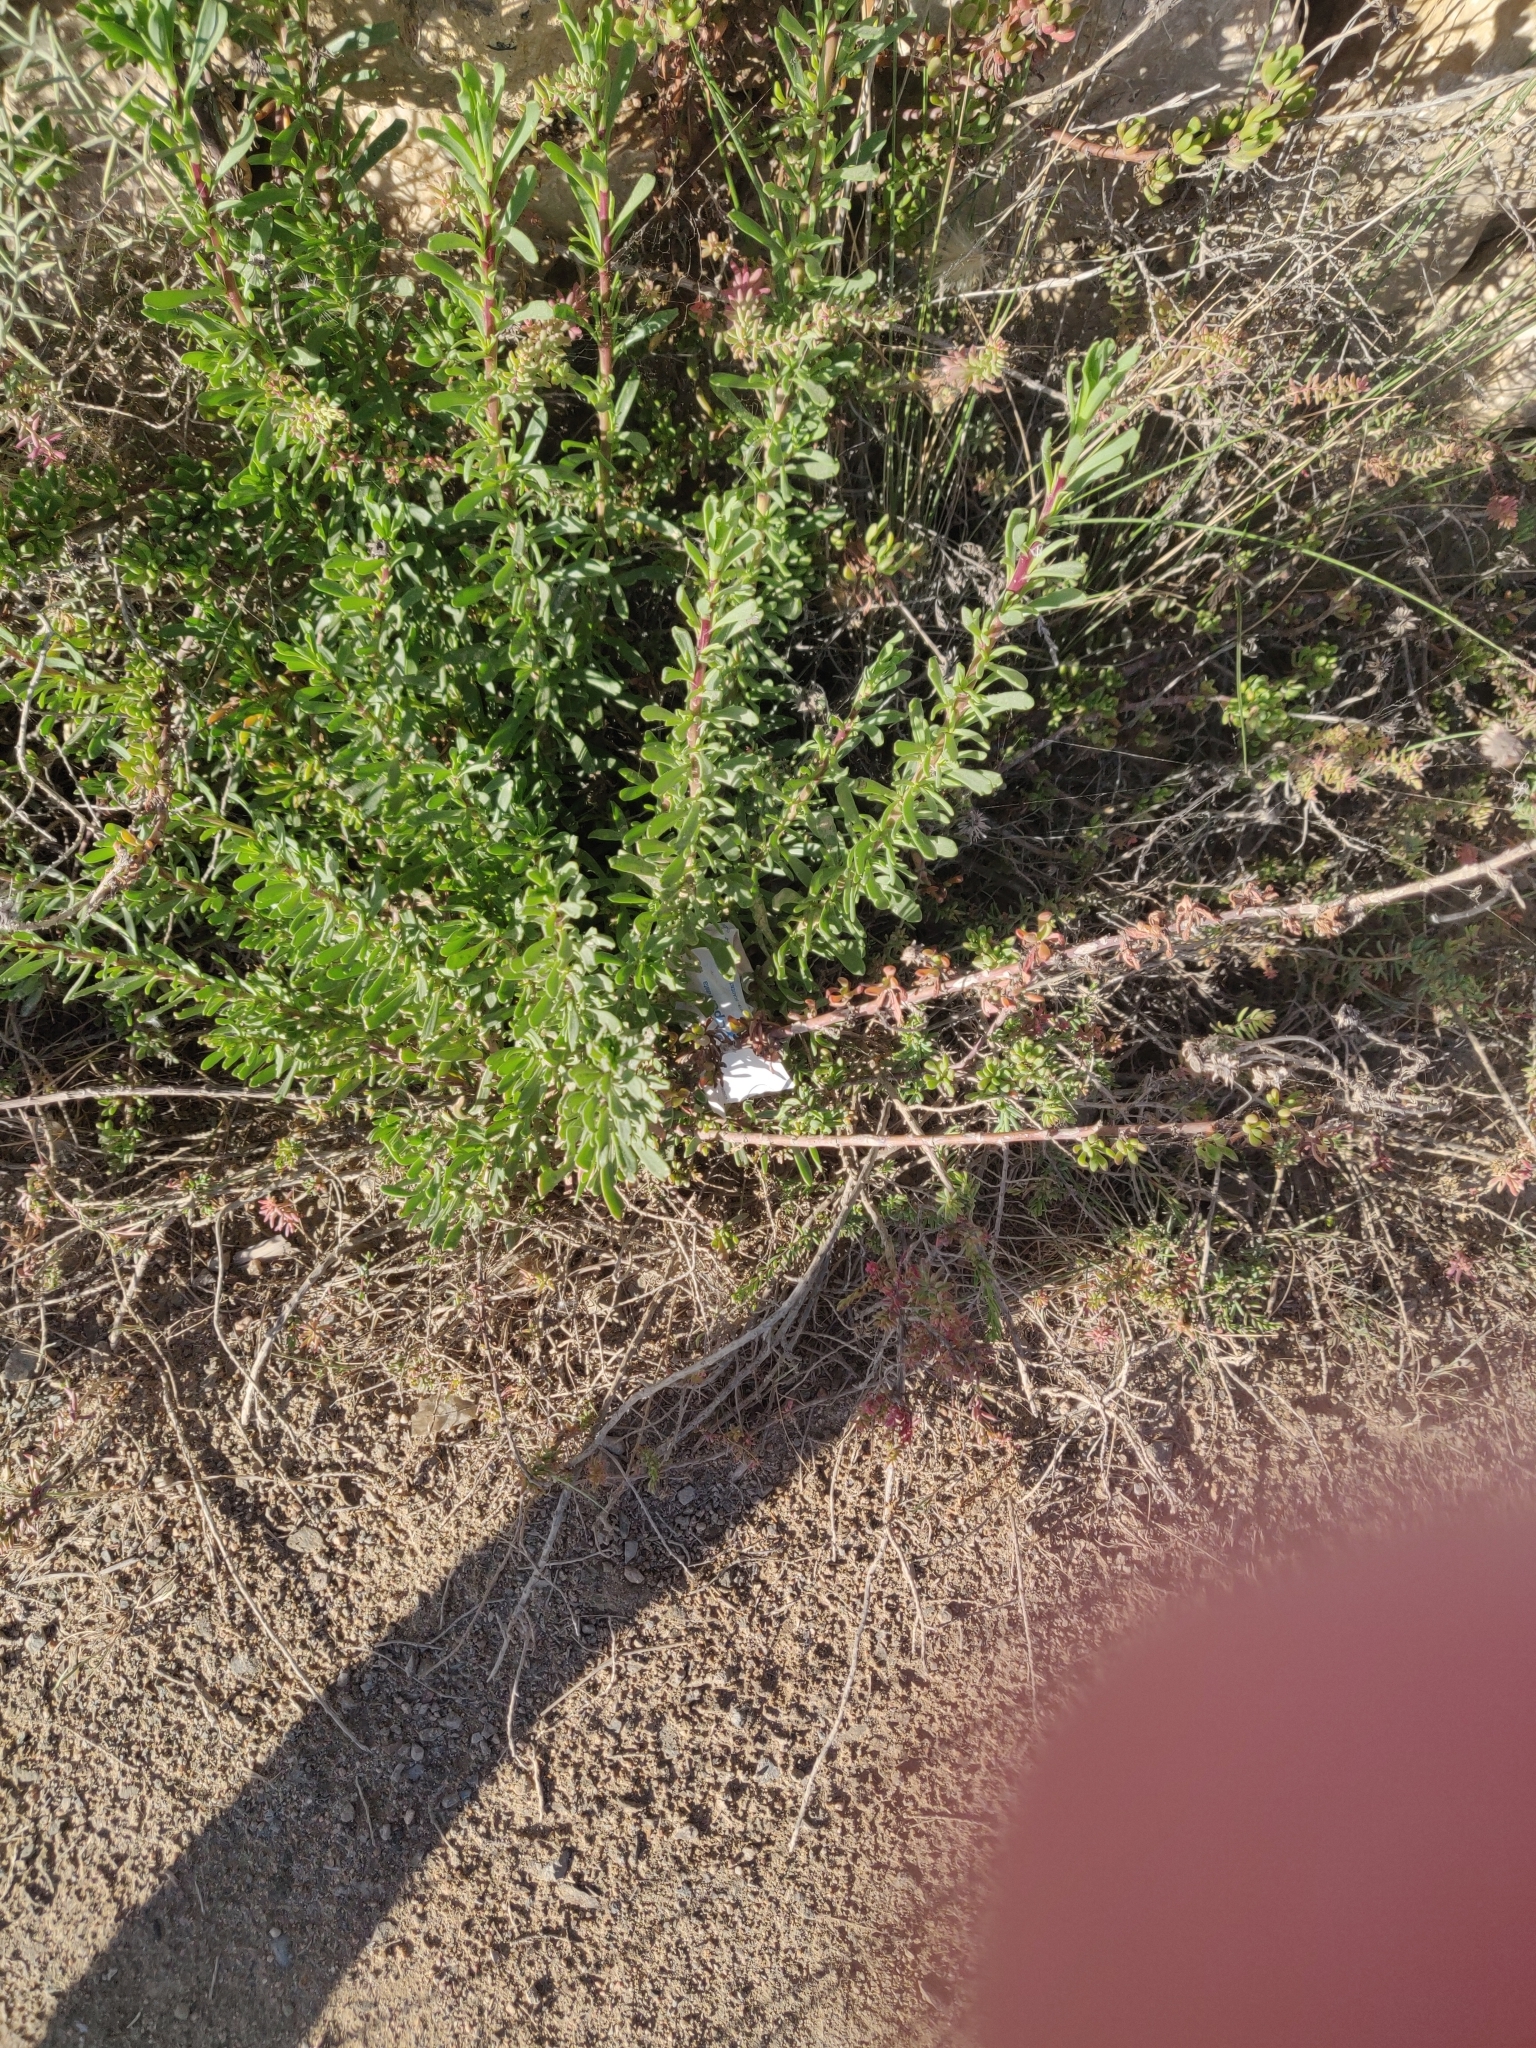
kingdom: Plantae
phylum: Tracheophyta
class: Magnoliopsida
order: Asterales
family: Asteraceae
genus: Limbarda
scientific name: Limbarda crithmoides
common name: Golden samphire
